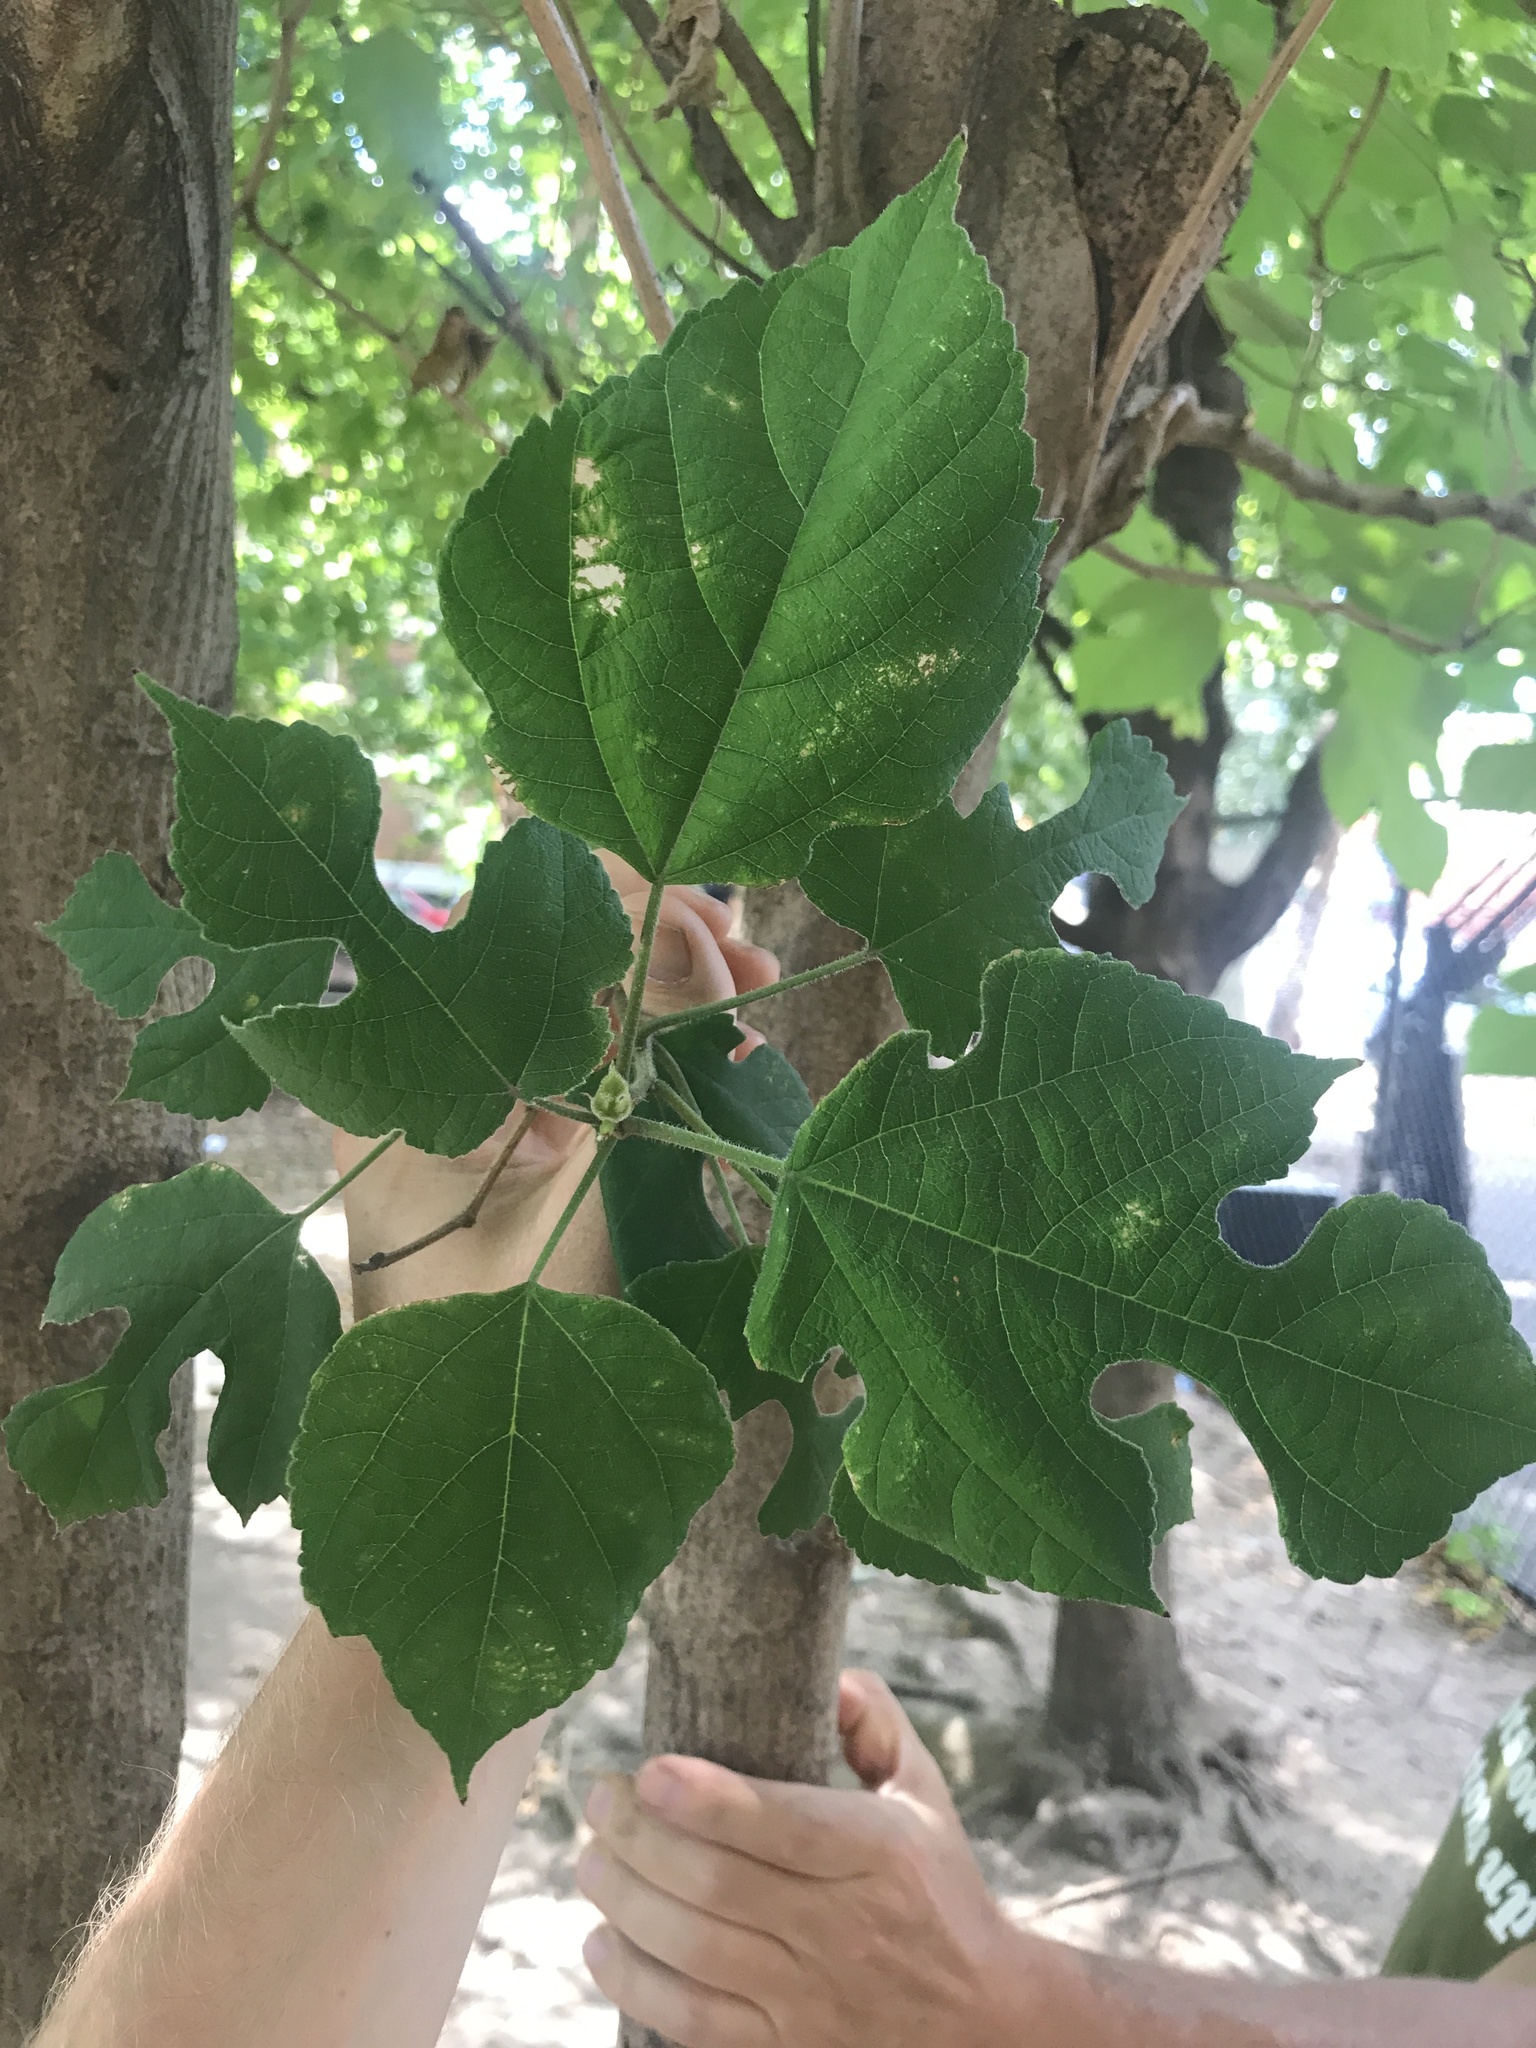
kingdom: Plantae
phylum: Tracheophyta
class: Magnoliopsida
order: Rosales
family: Moraceae
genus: Broussonetia
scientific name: Broussonetia papyrifera
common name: Paper mulberry
